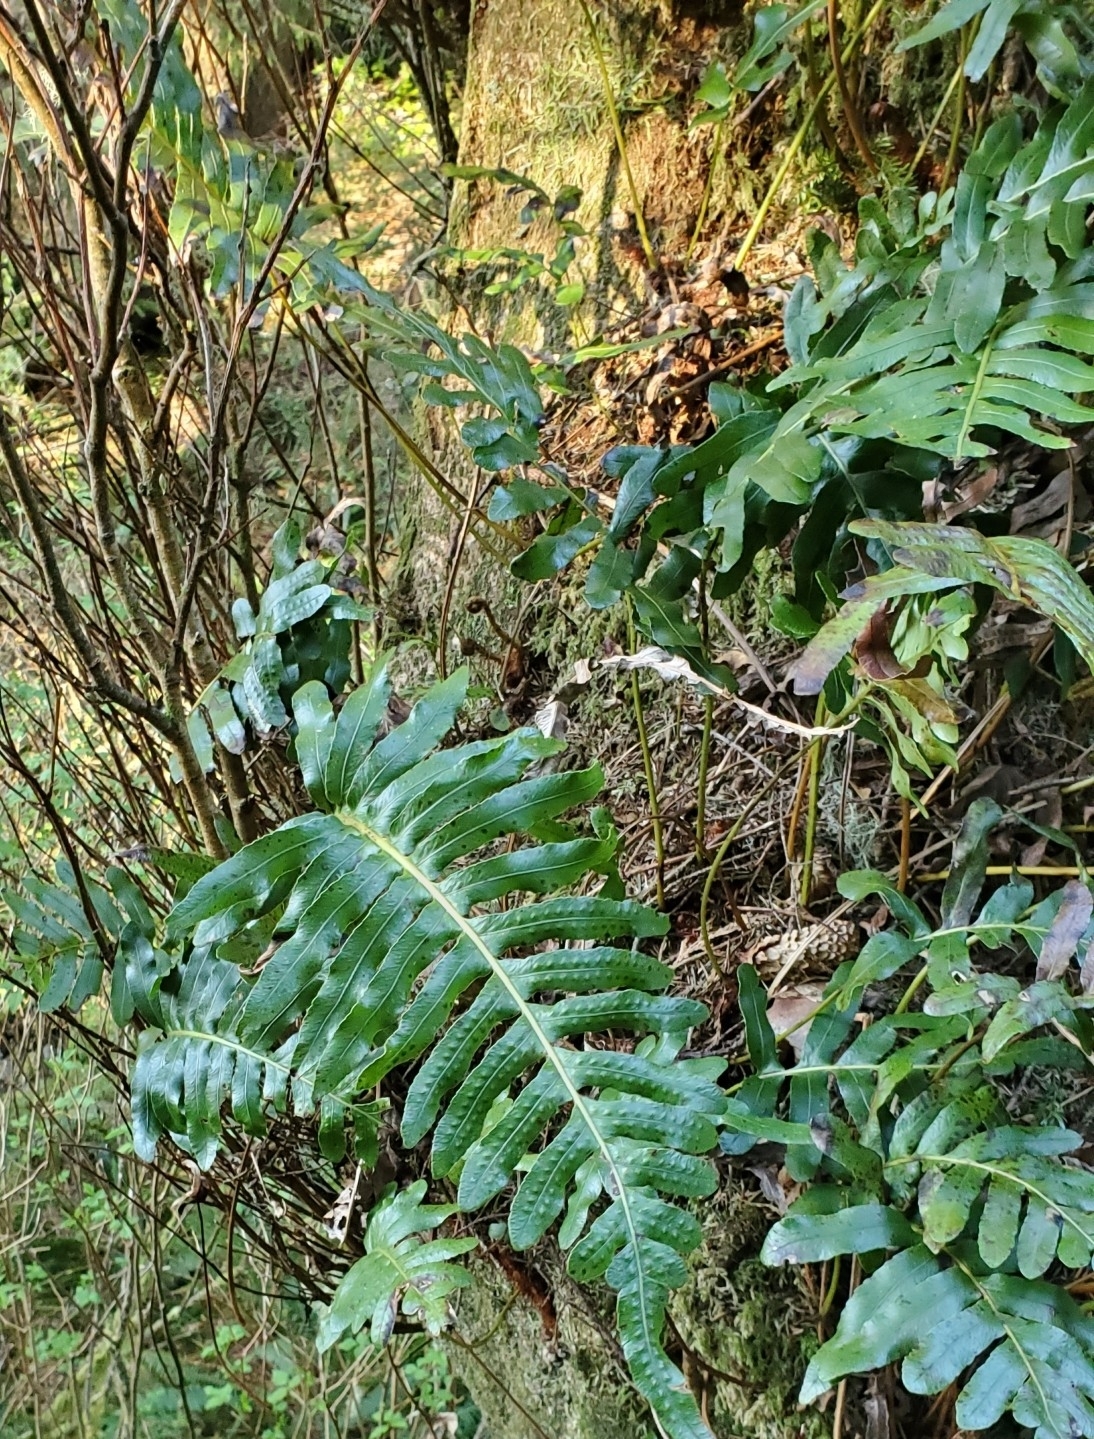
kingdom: Plantae
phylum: Tracheophyta
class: Polypodiopsida
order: Polypodiales
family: Polypodiaceae
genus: Polypodium
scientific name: Polypodium scouleri
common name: Scouler's polypody
